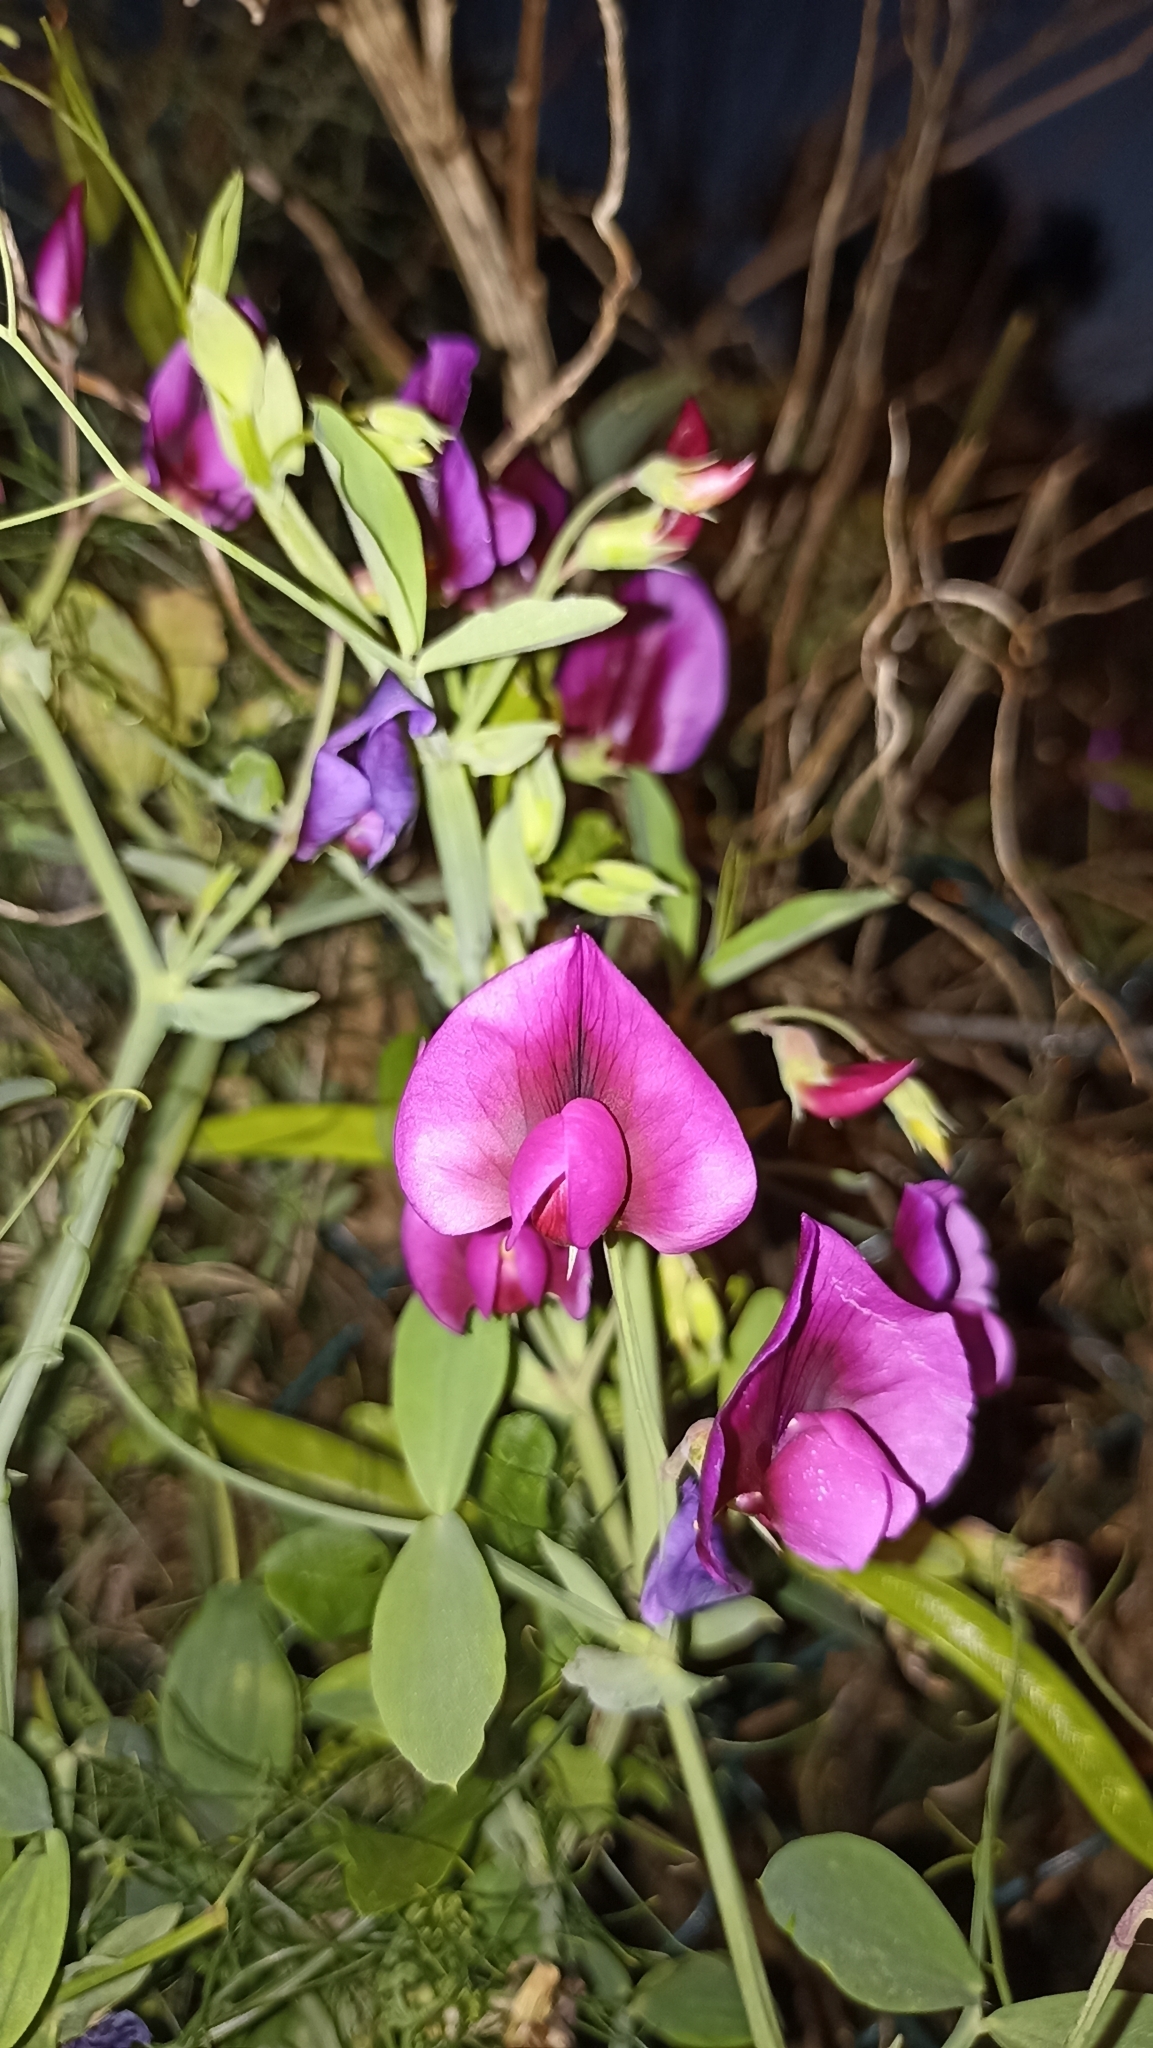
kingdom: Plantae
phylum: Tracheophyta
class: Magnoliopsida
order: Fabales
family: Fabaceae
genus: Lathyrus
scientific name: Lathyrus tingitanus
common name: Tangier pea
